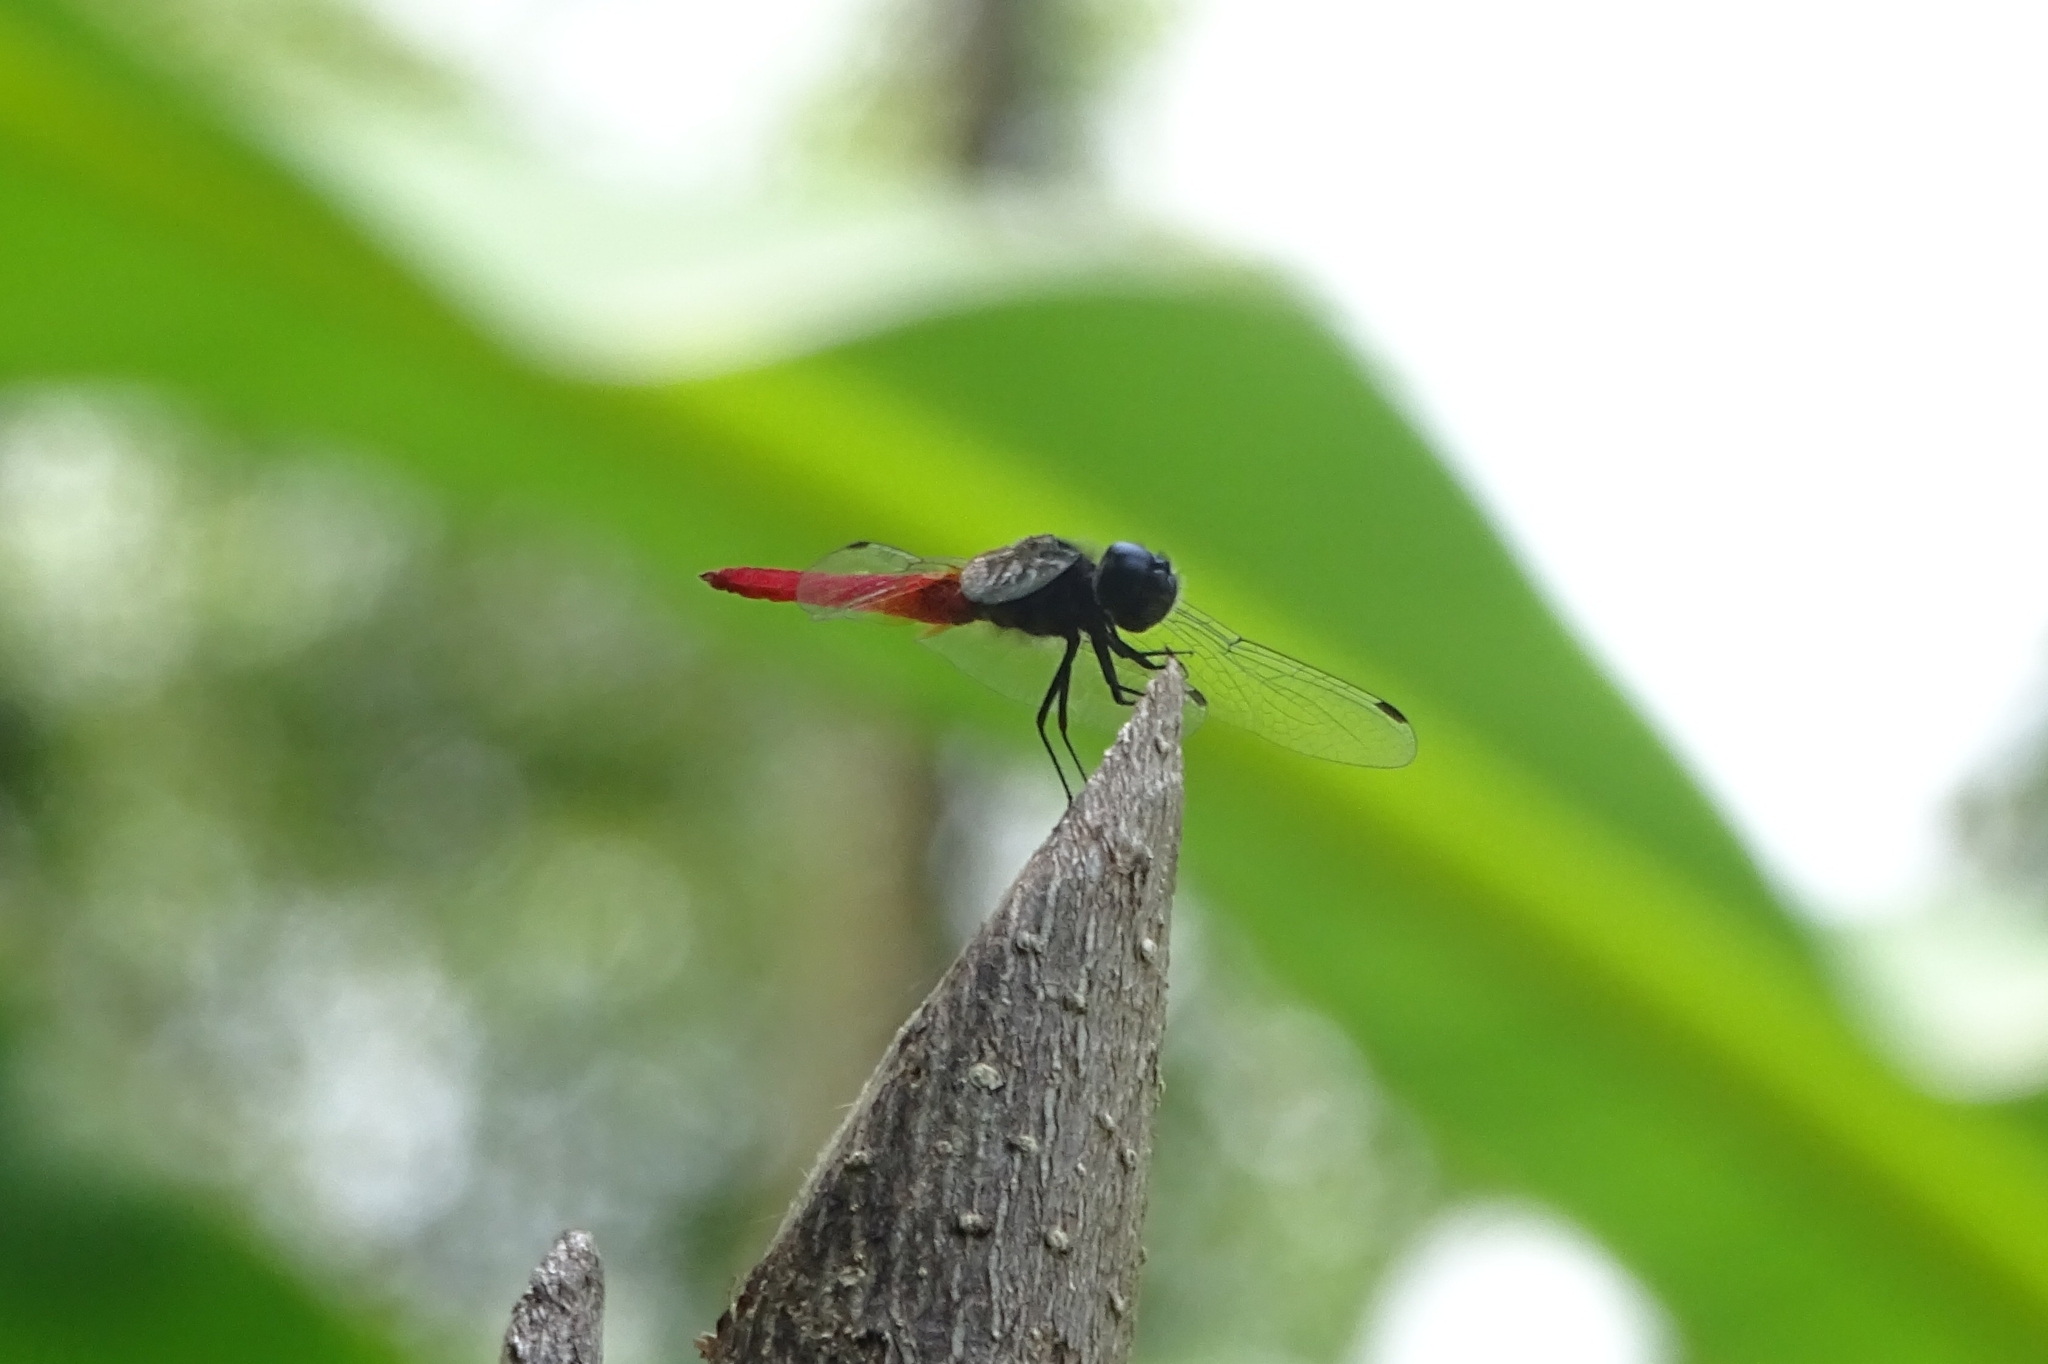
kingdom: Animalia
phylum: Arthropoda
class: Insecta
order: Odonata
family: Libellulidae
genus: Aethriamanta
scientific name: Aethriamanta brevipennis
